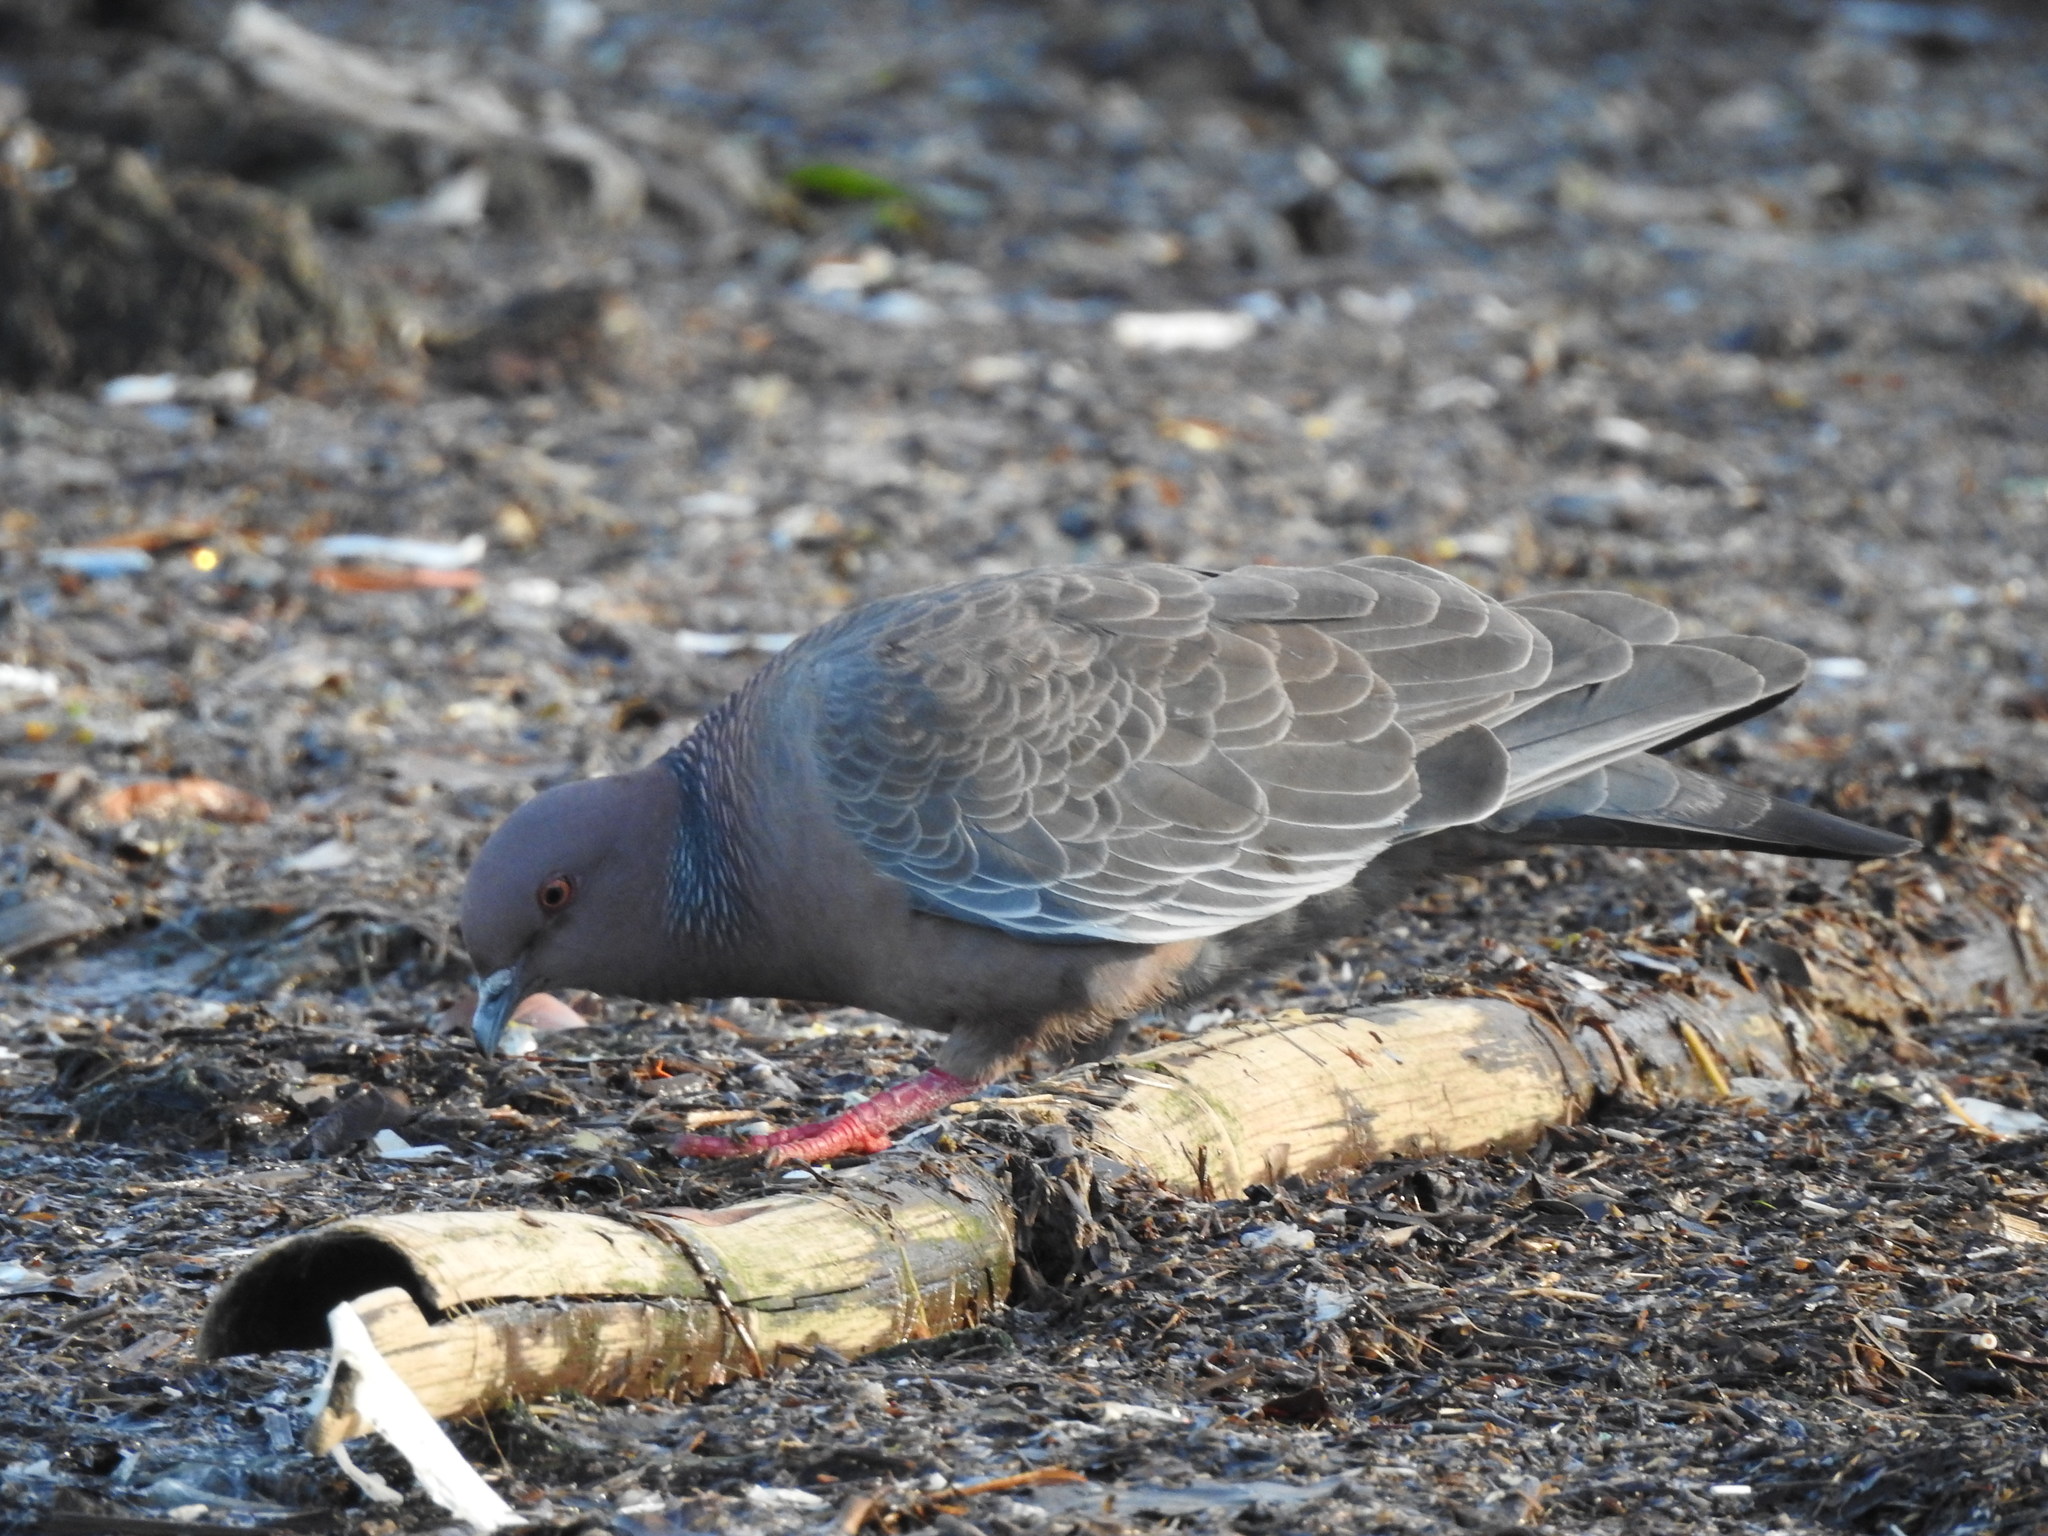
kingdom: Animalia
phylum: Chordata
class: Aves
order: Columbiformes
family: Columbidae
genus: Patagioenas
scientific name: Patagioenas picazuro
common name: Picazuro pigeon
